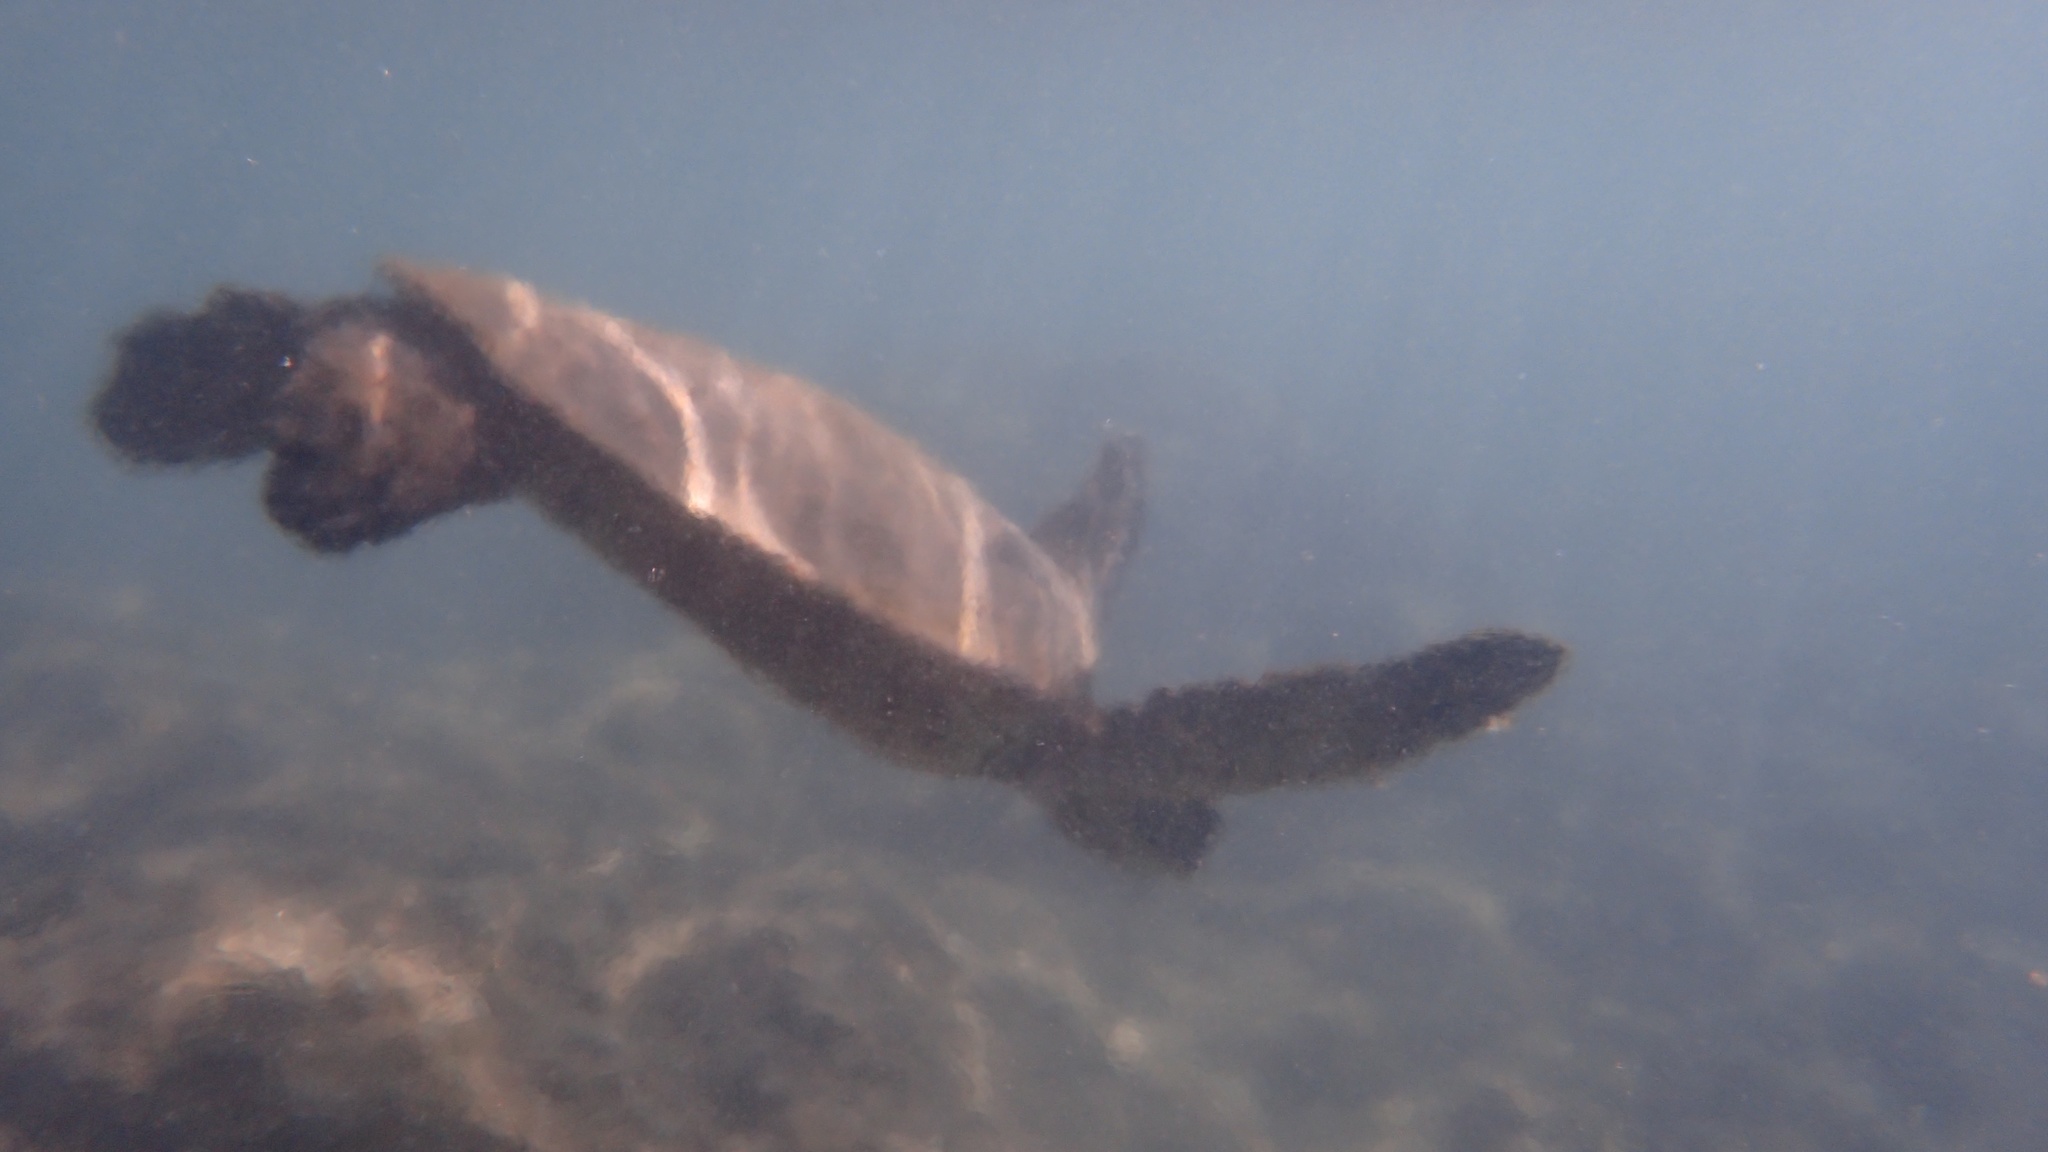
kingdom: Animalia
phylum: Chordata
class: Testudines
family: Cheloniidae
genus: Chelonia
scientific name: Chelonia mydas
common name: Green turtle
